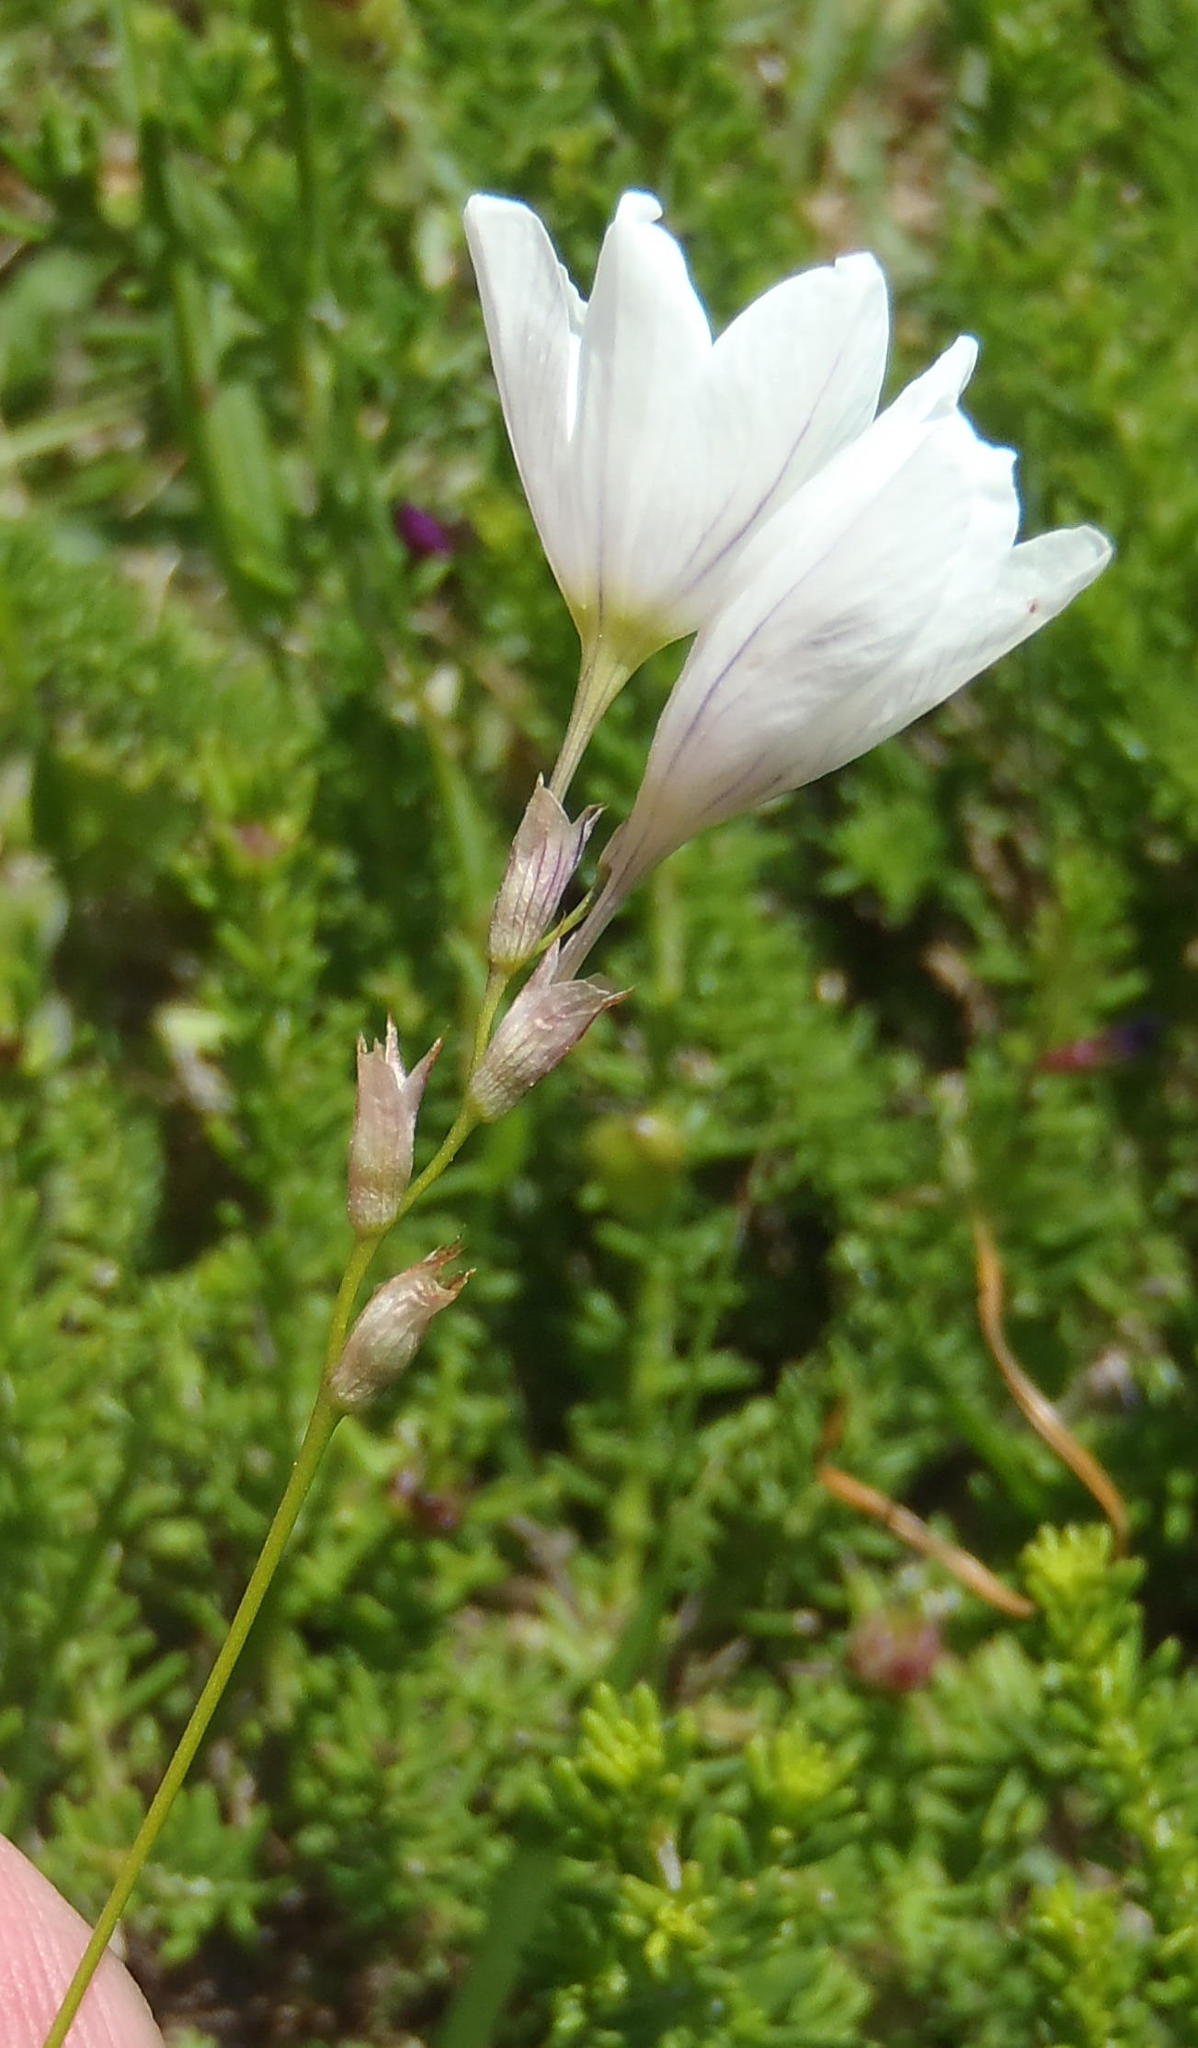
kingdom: Plantae
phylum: Tracheophyta
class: Liliopsida
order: Asparagales
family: Iridaceae
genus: Ixia
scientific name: Ixia orientalis
